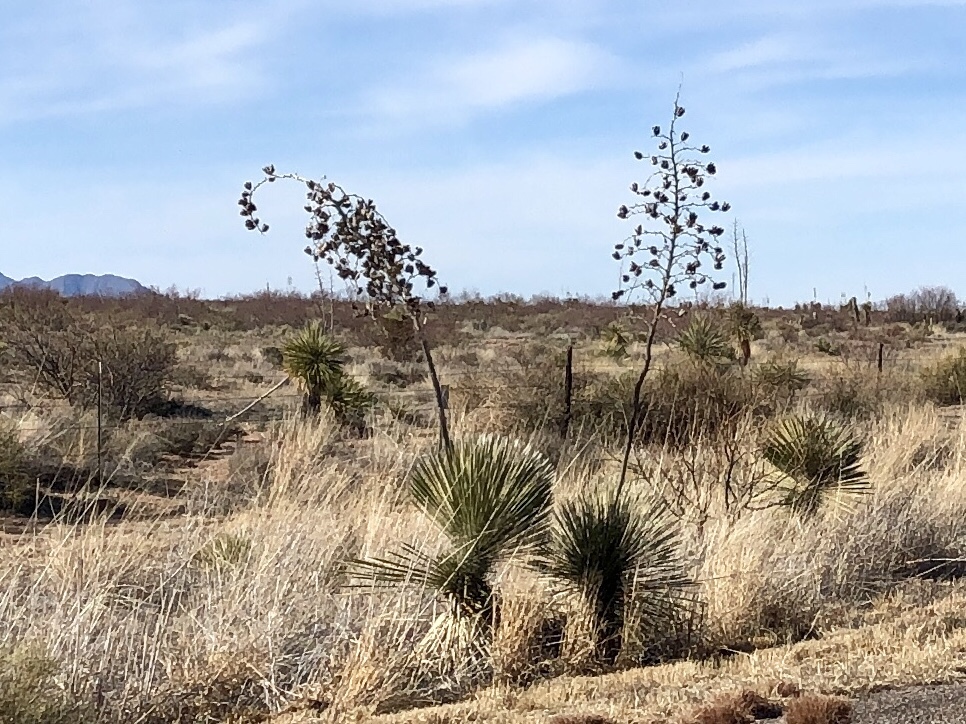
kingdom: Plantae
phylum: Tracheophyta
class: Liliopsida
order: Asparagales
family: Asparagaceae
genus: Yucca
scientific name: Yucca elata
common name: Palmella
